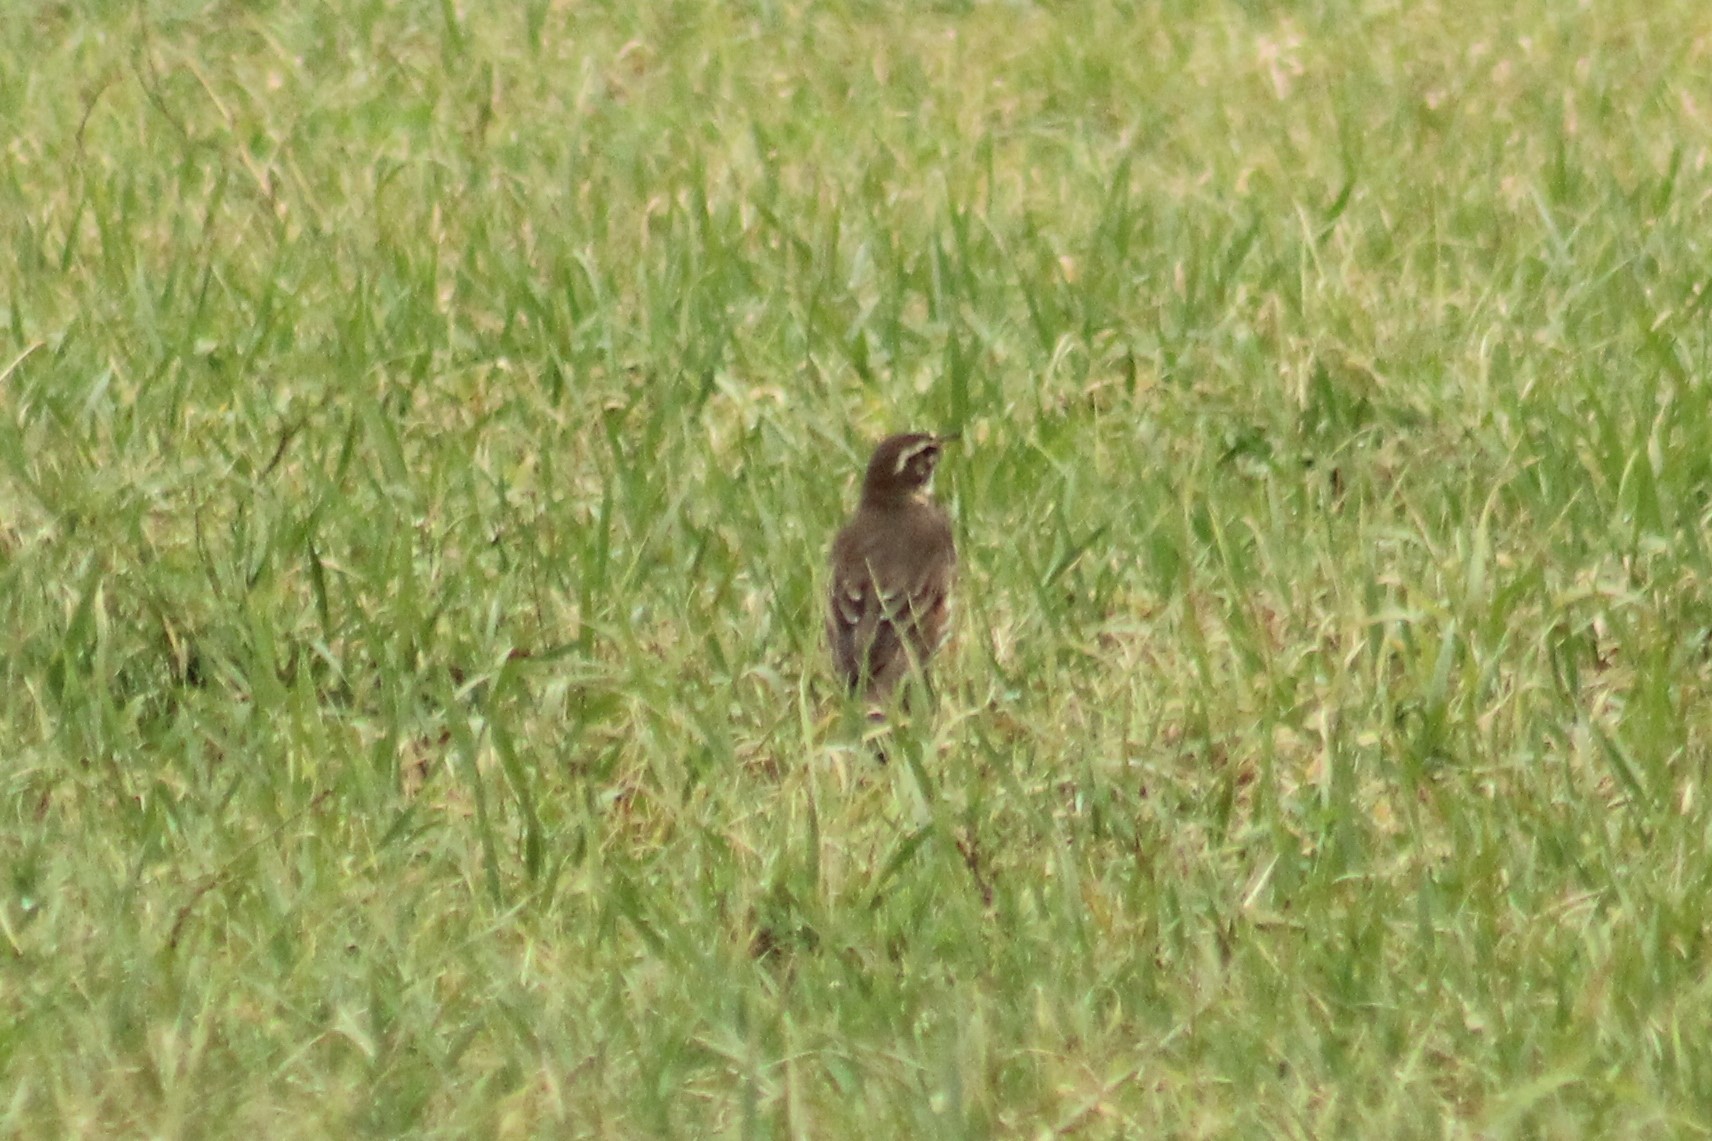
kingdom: Animalia
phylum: Chordata
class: Aves
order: Passeriformes
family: Turdidae
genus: Turdus
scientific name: Turdus iliacus
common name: Redwing
